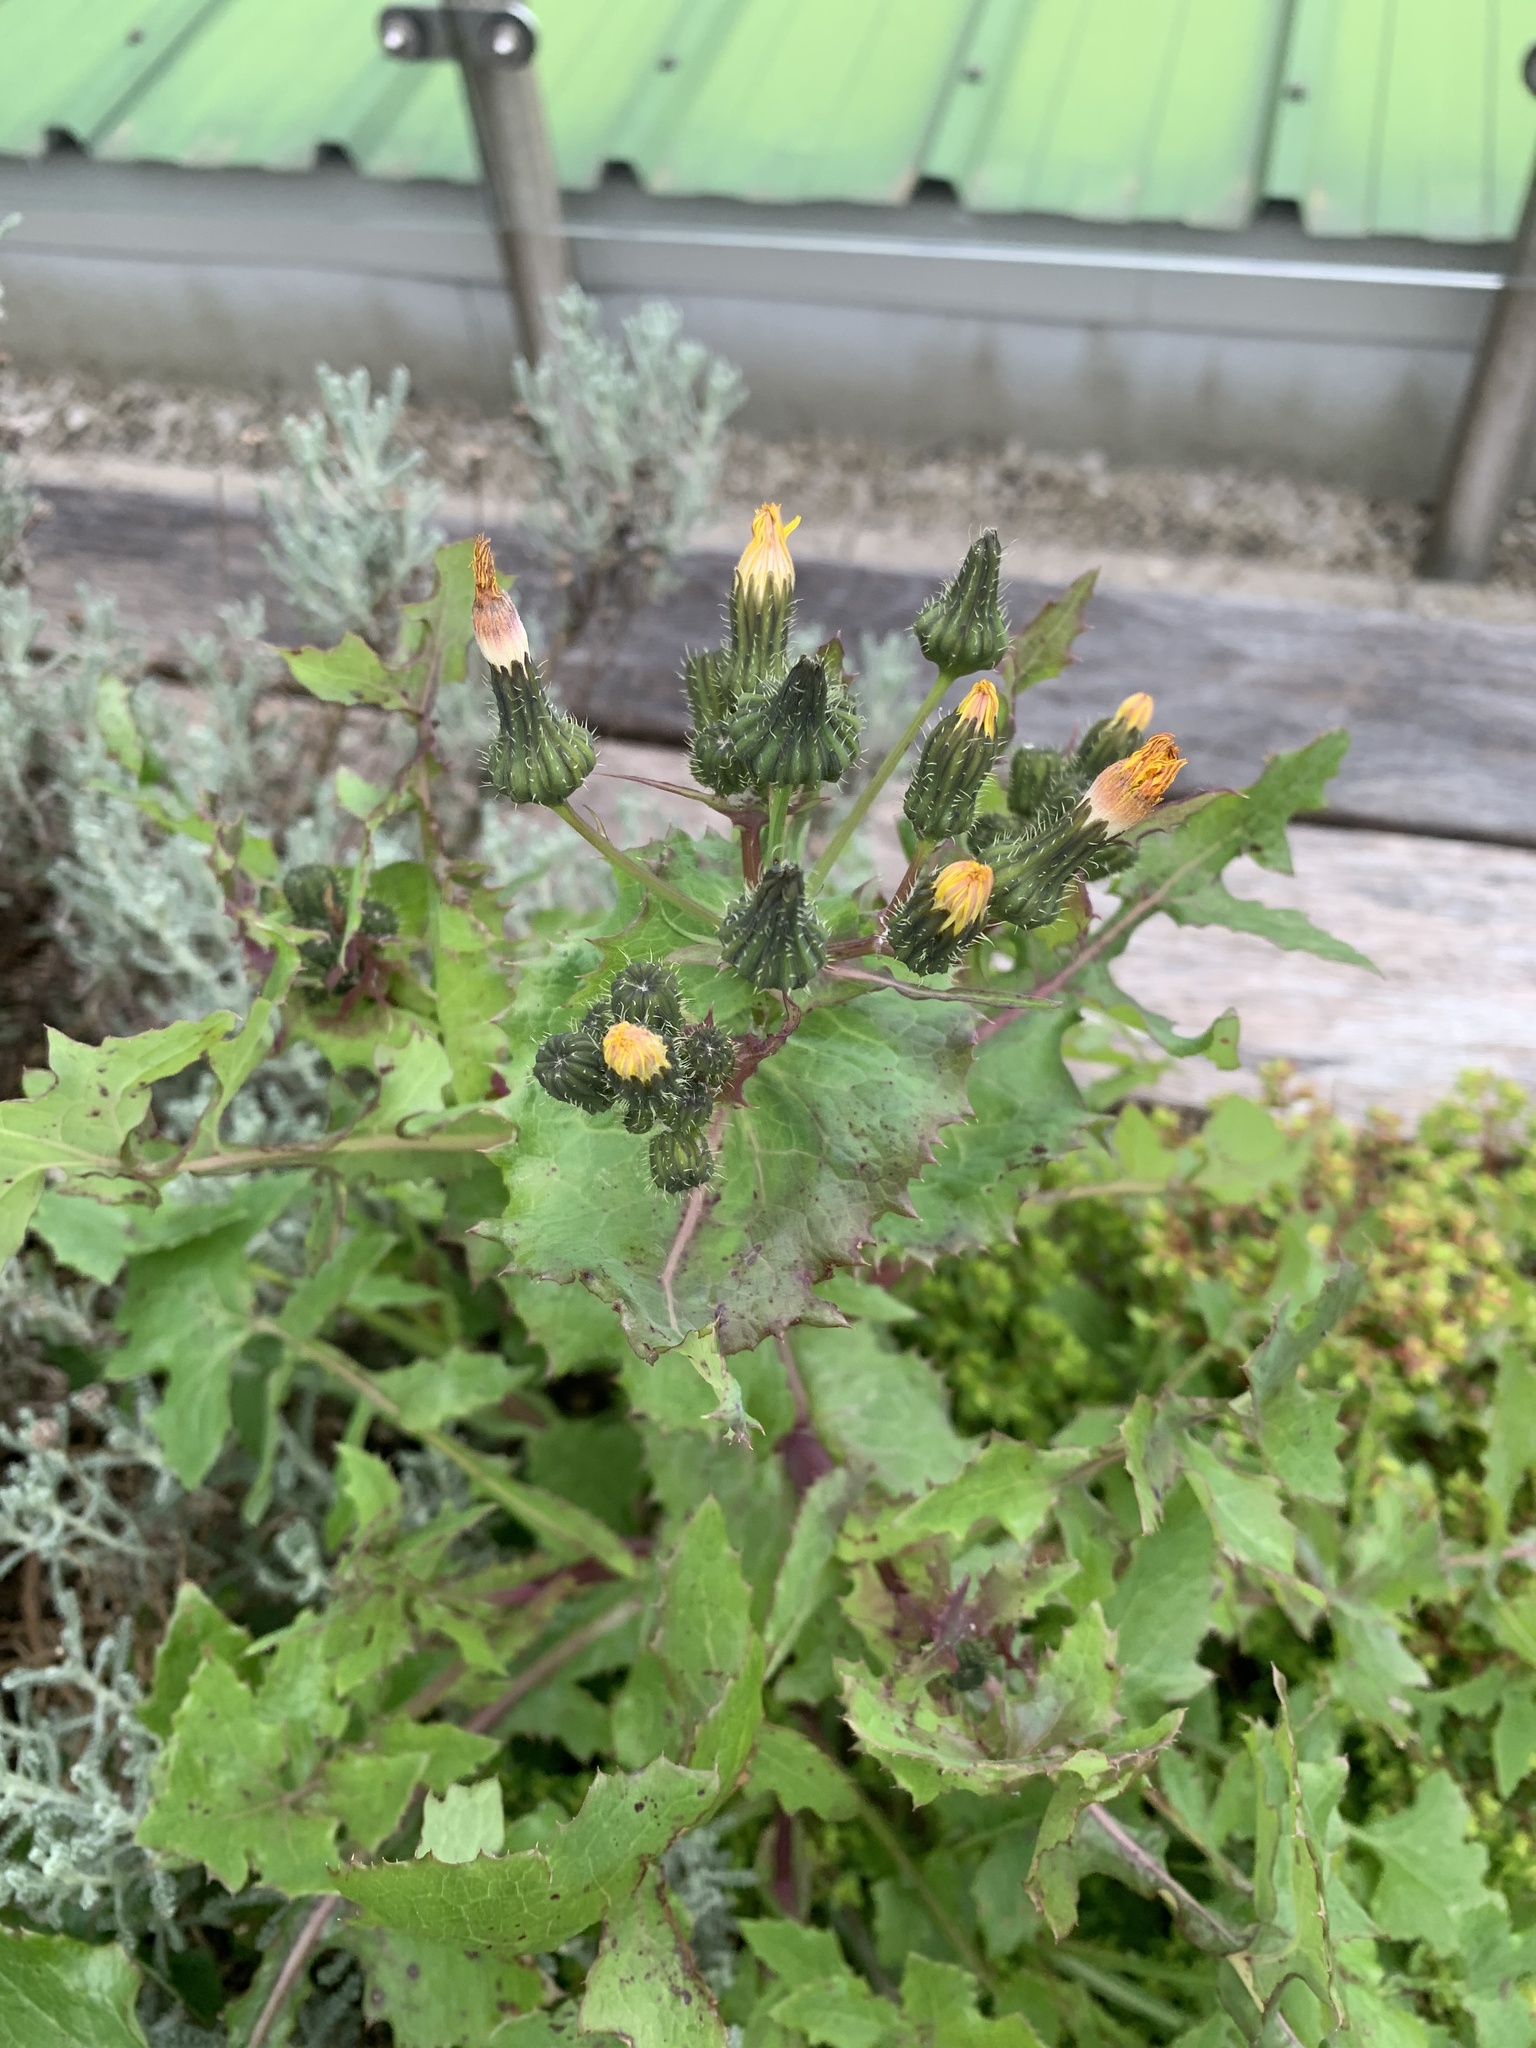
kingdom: Plantae
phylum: Tracheophyta
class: Magnoliopsida
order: Asterales
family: Asteraceae
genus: Sonchus
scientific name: Sonchus oleraceus
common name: Common sowthistle
